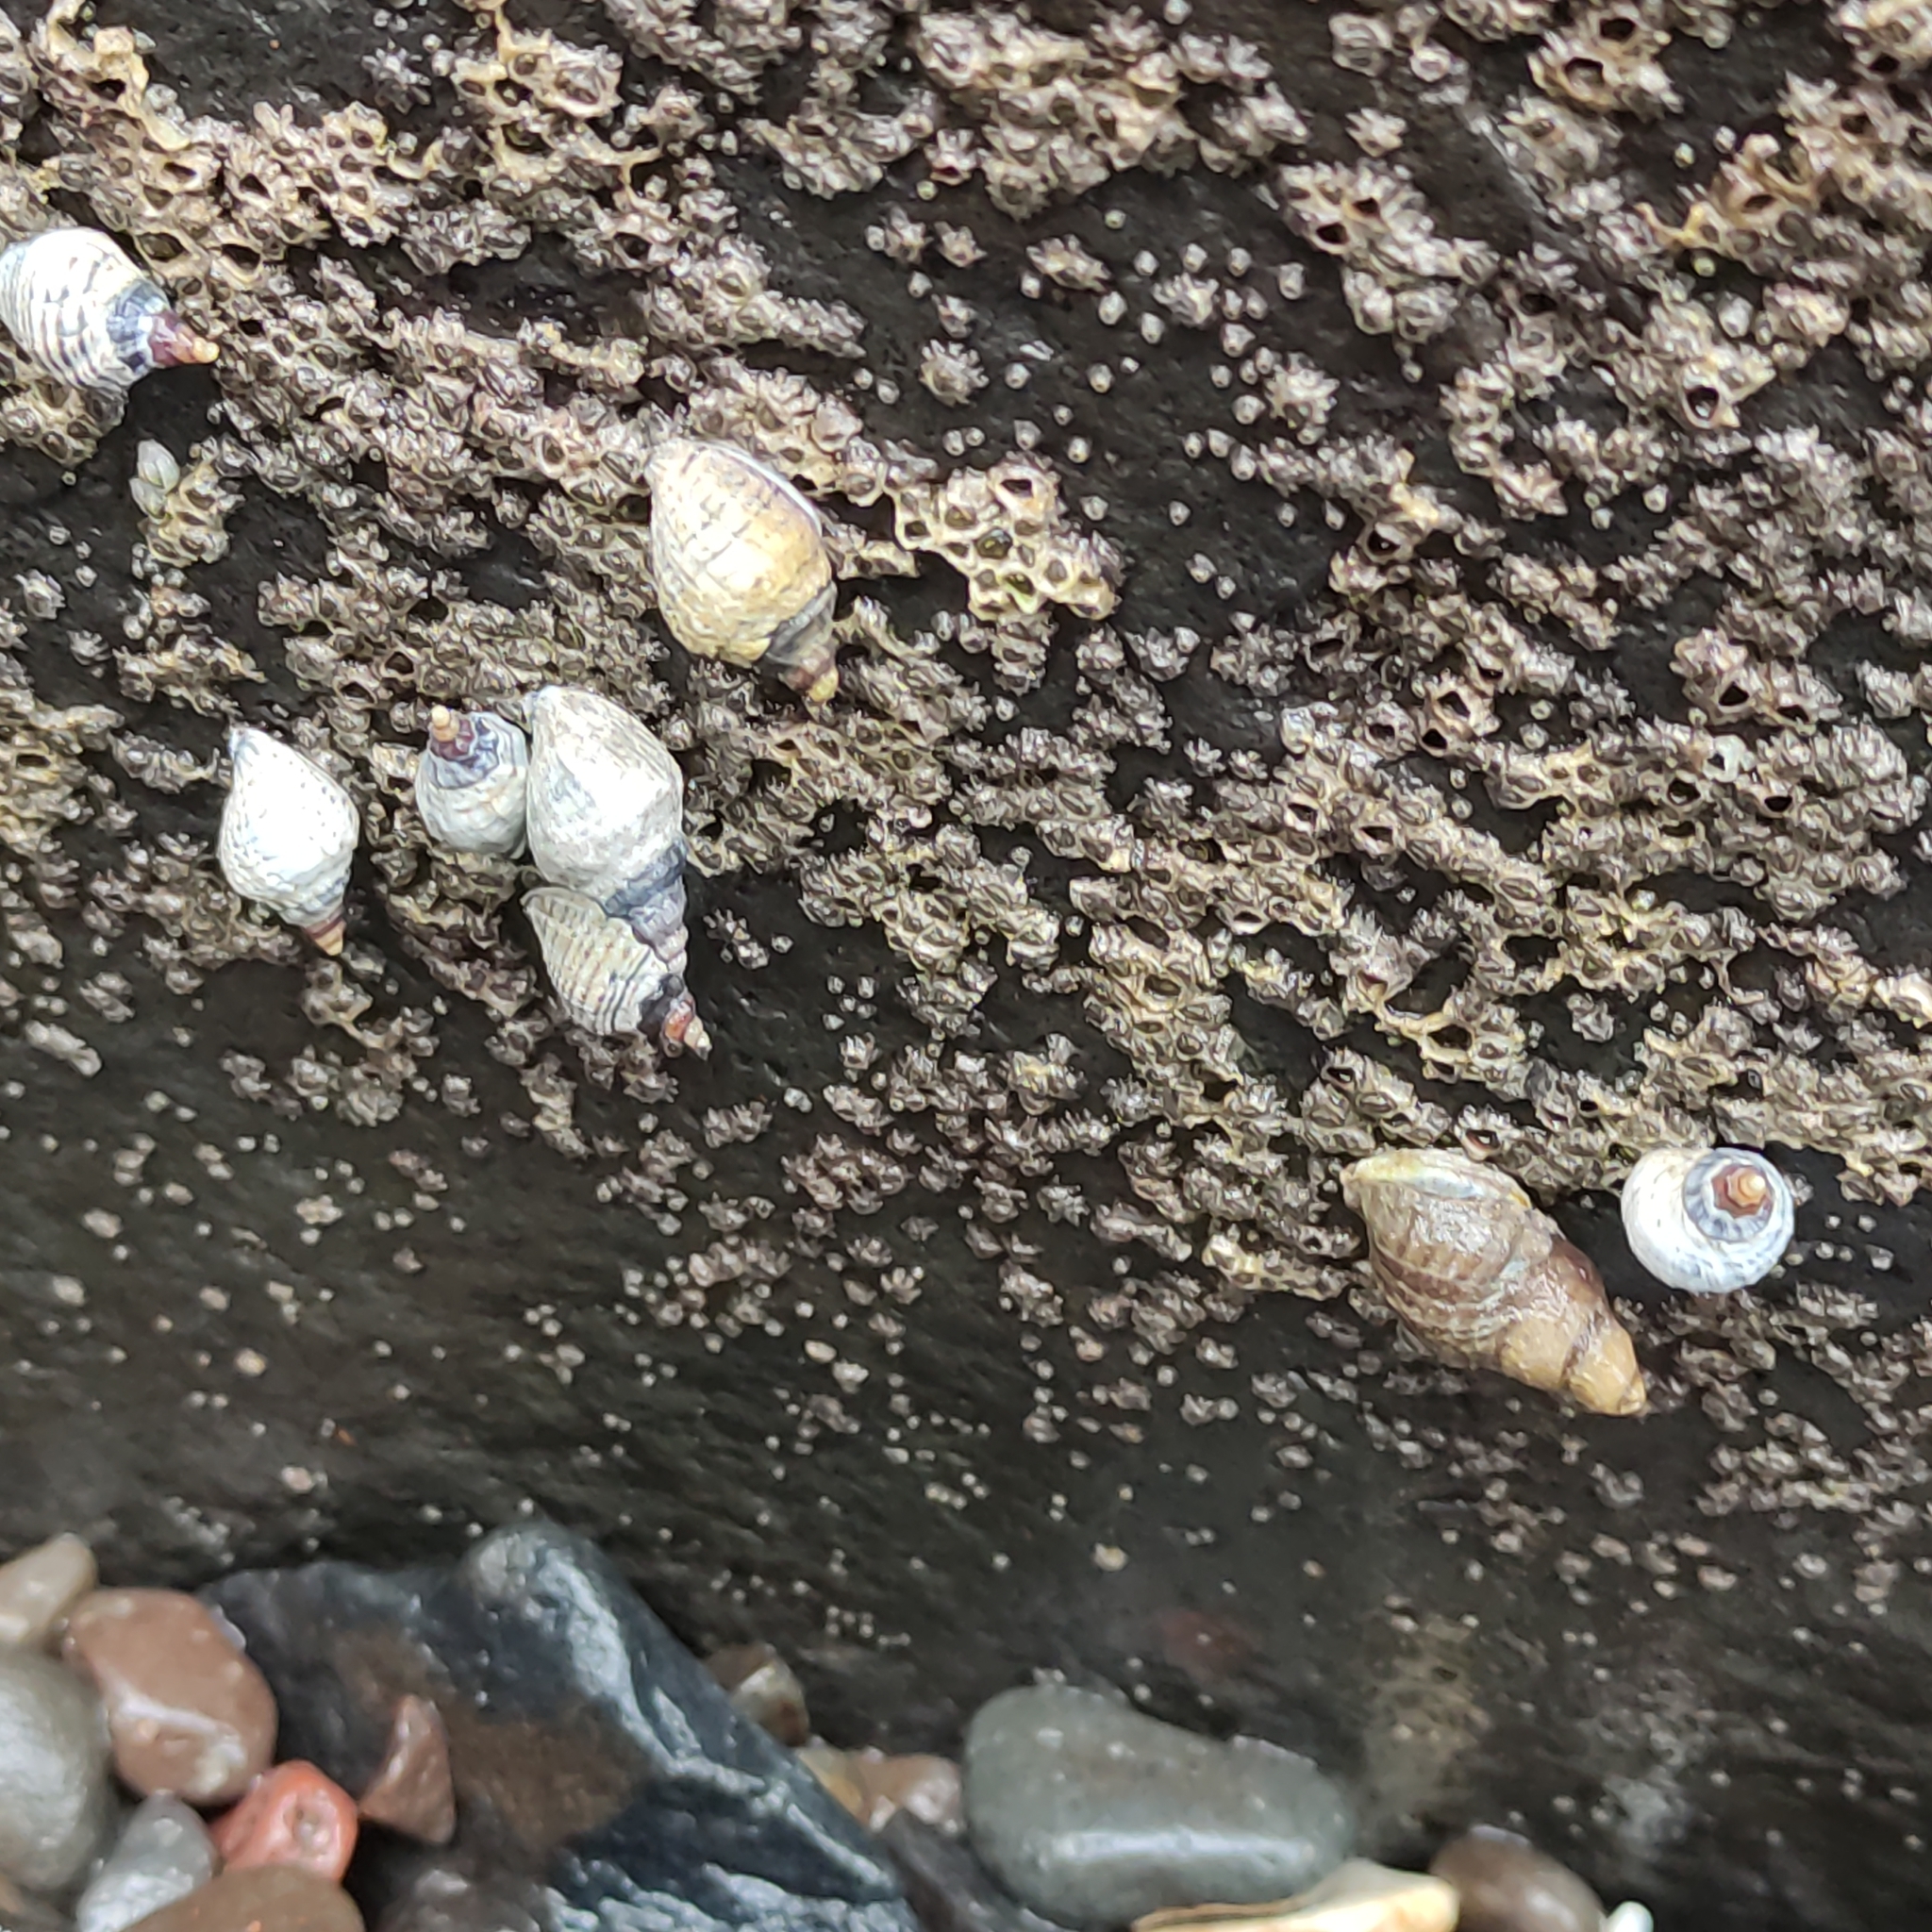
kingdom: Animalia
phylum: Mollusca
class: Gastropoda
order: Neogastropoda
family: Muricidae
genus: Haustrum
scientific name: Haustrum albomarginatum
